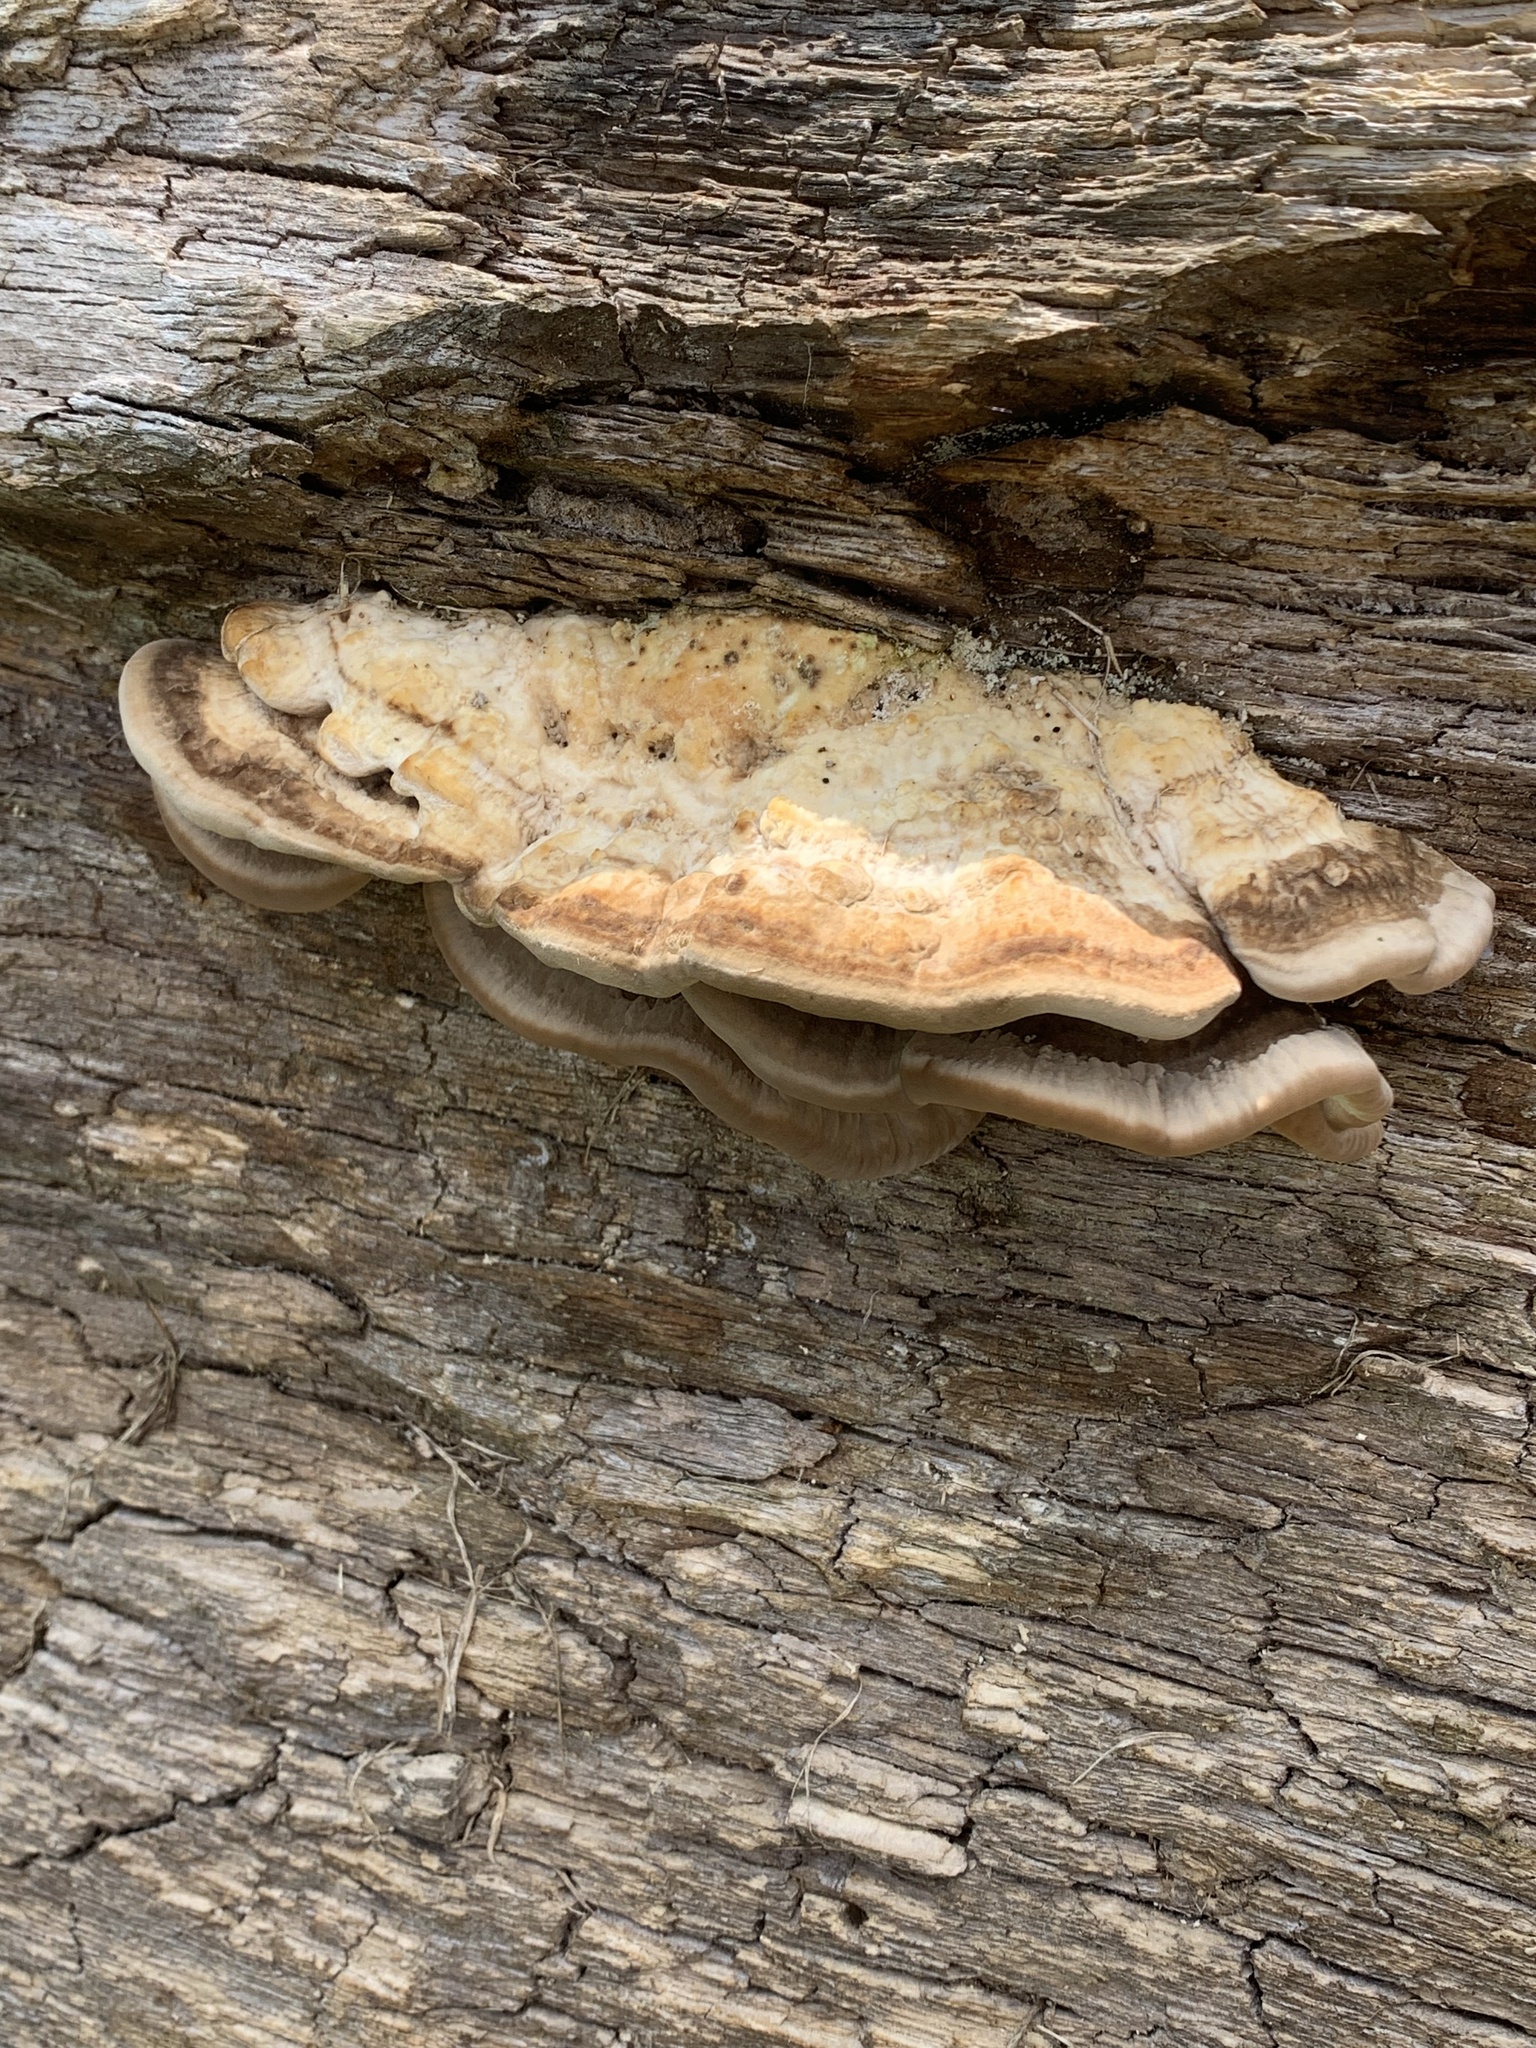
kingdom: Fungi
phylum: Basidiomycota
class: Agaricomycetes
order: Polyporales
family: Polyporaceae
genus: Trametes
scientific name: Trametes cubensis
